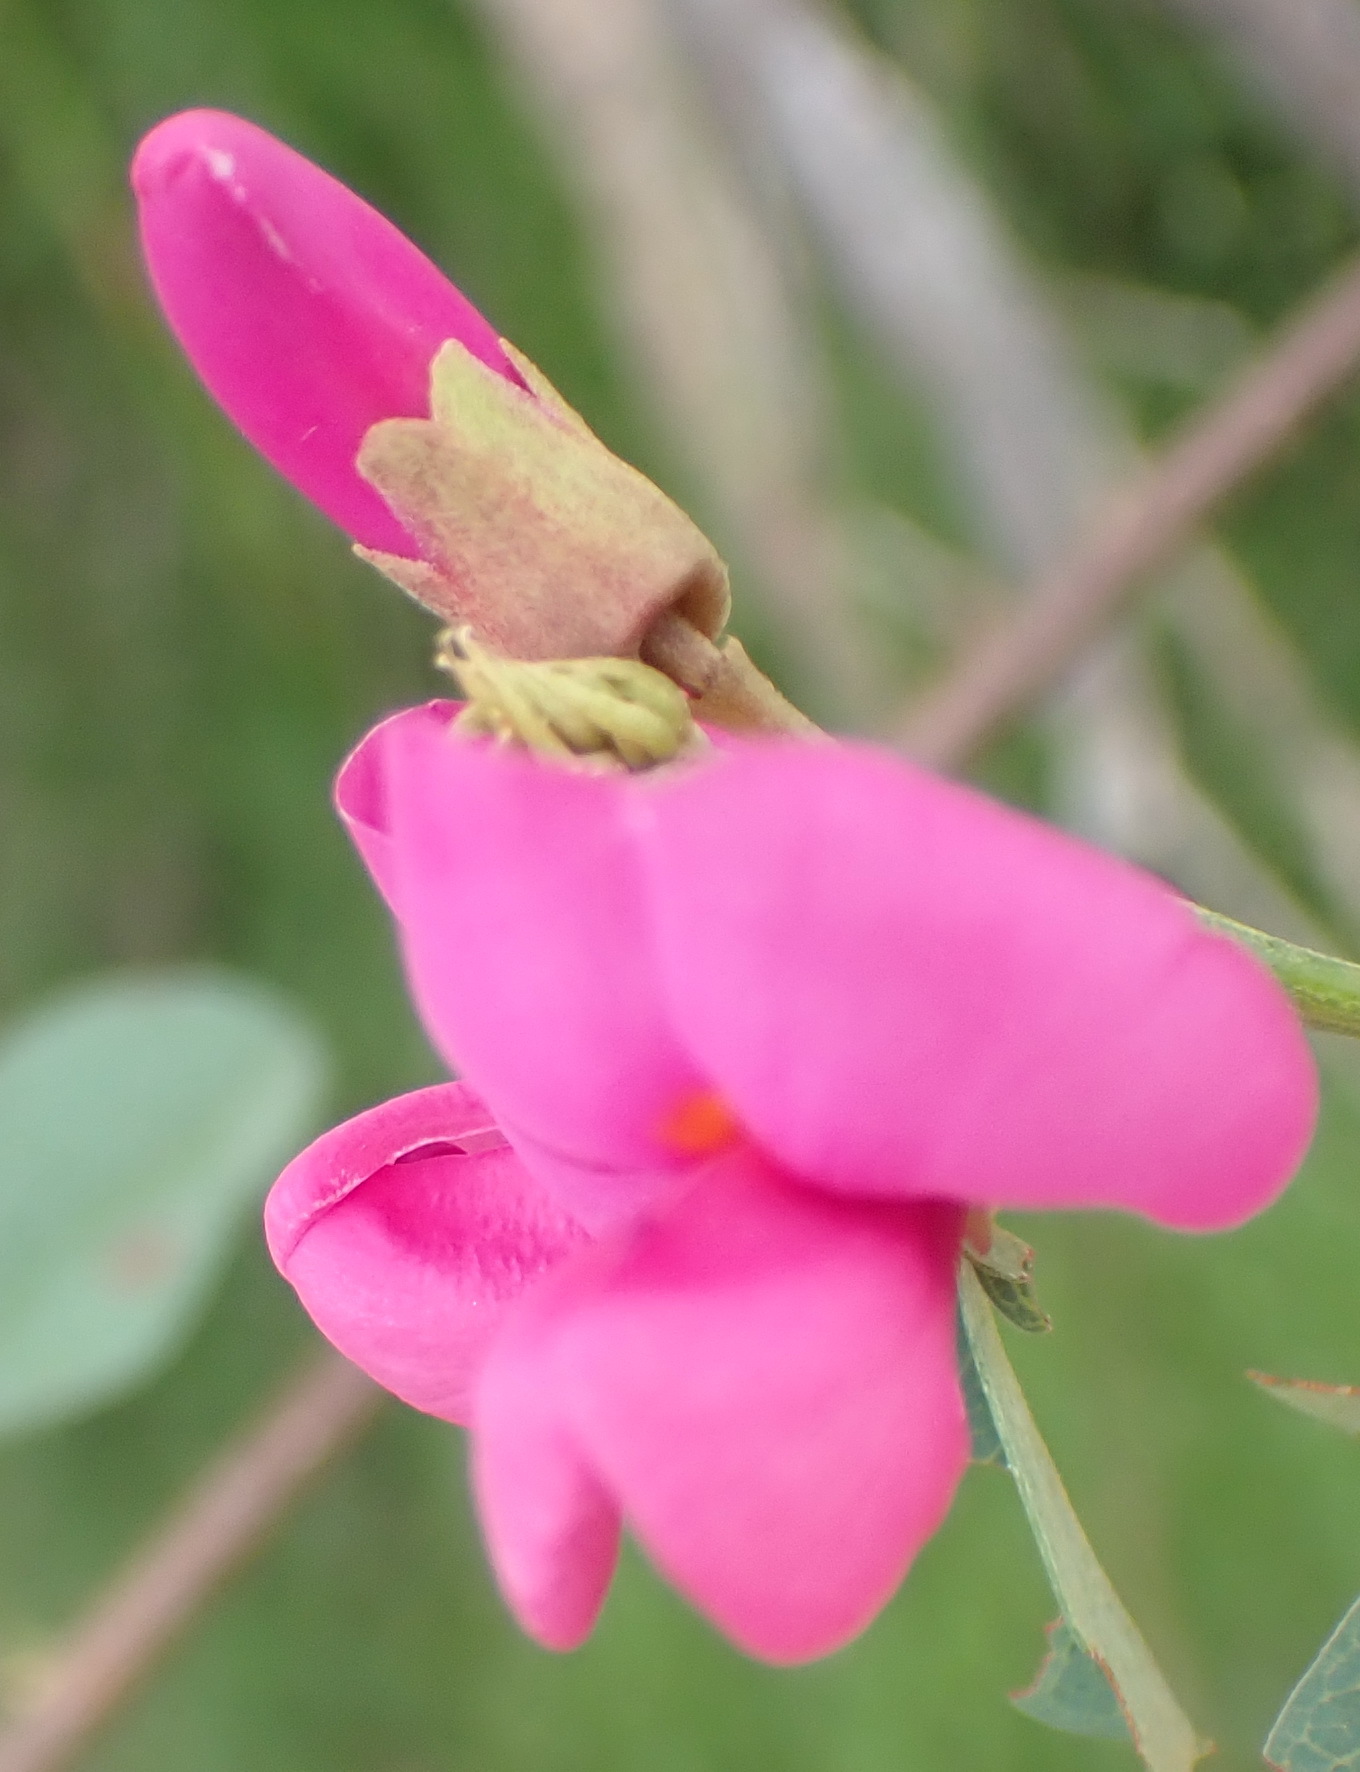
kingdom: Plantae
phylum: Tracheophyta
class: Magnoliopsida
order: Fabales
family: Fabaceae
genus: Hypocalyptus
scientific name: Hypocalyptus coluteoides
